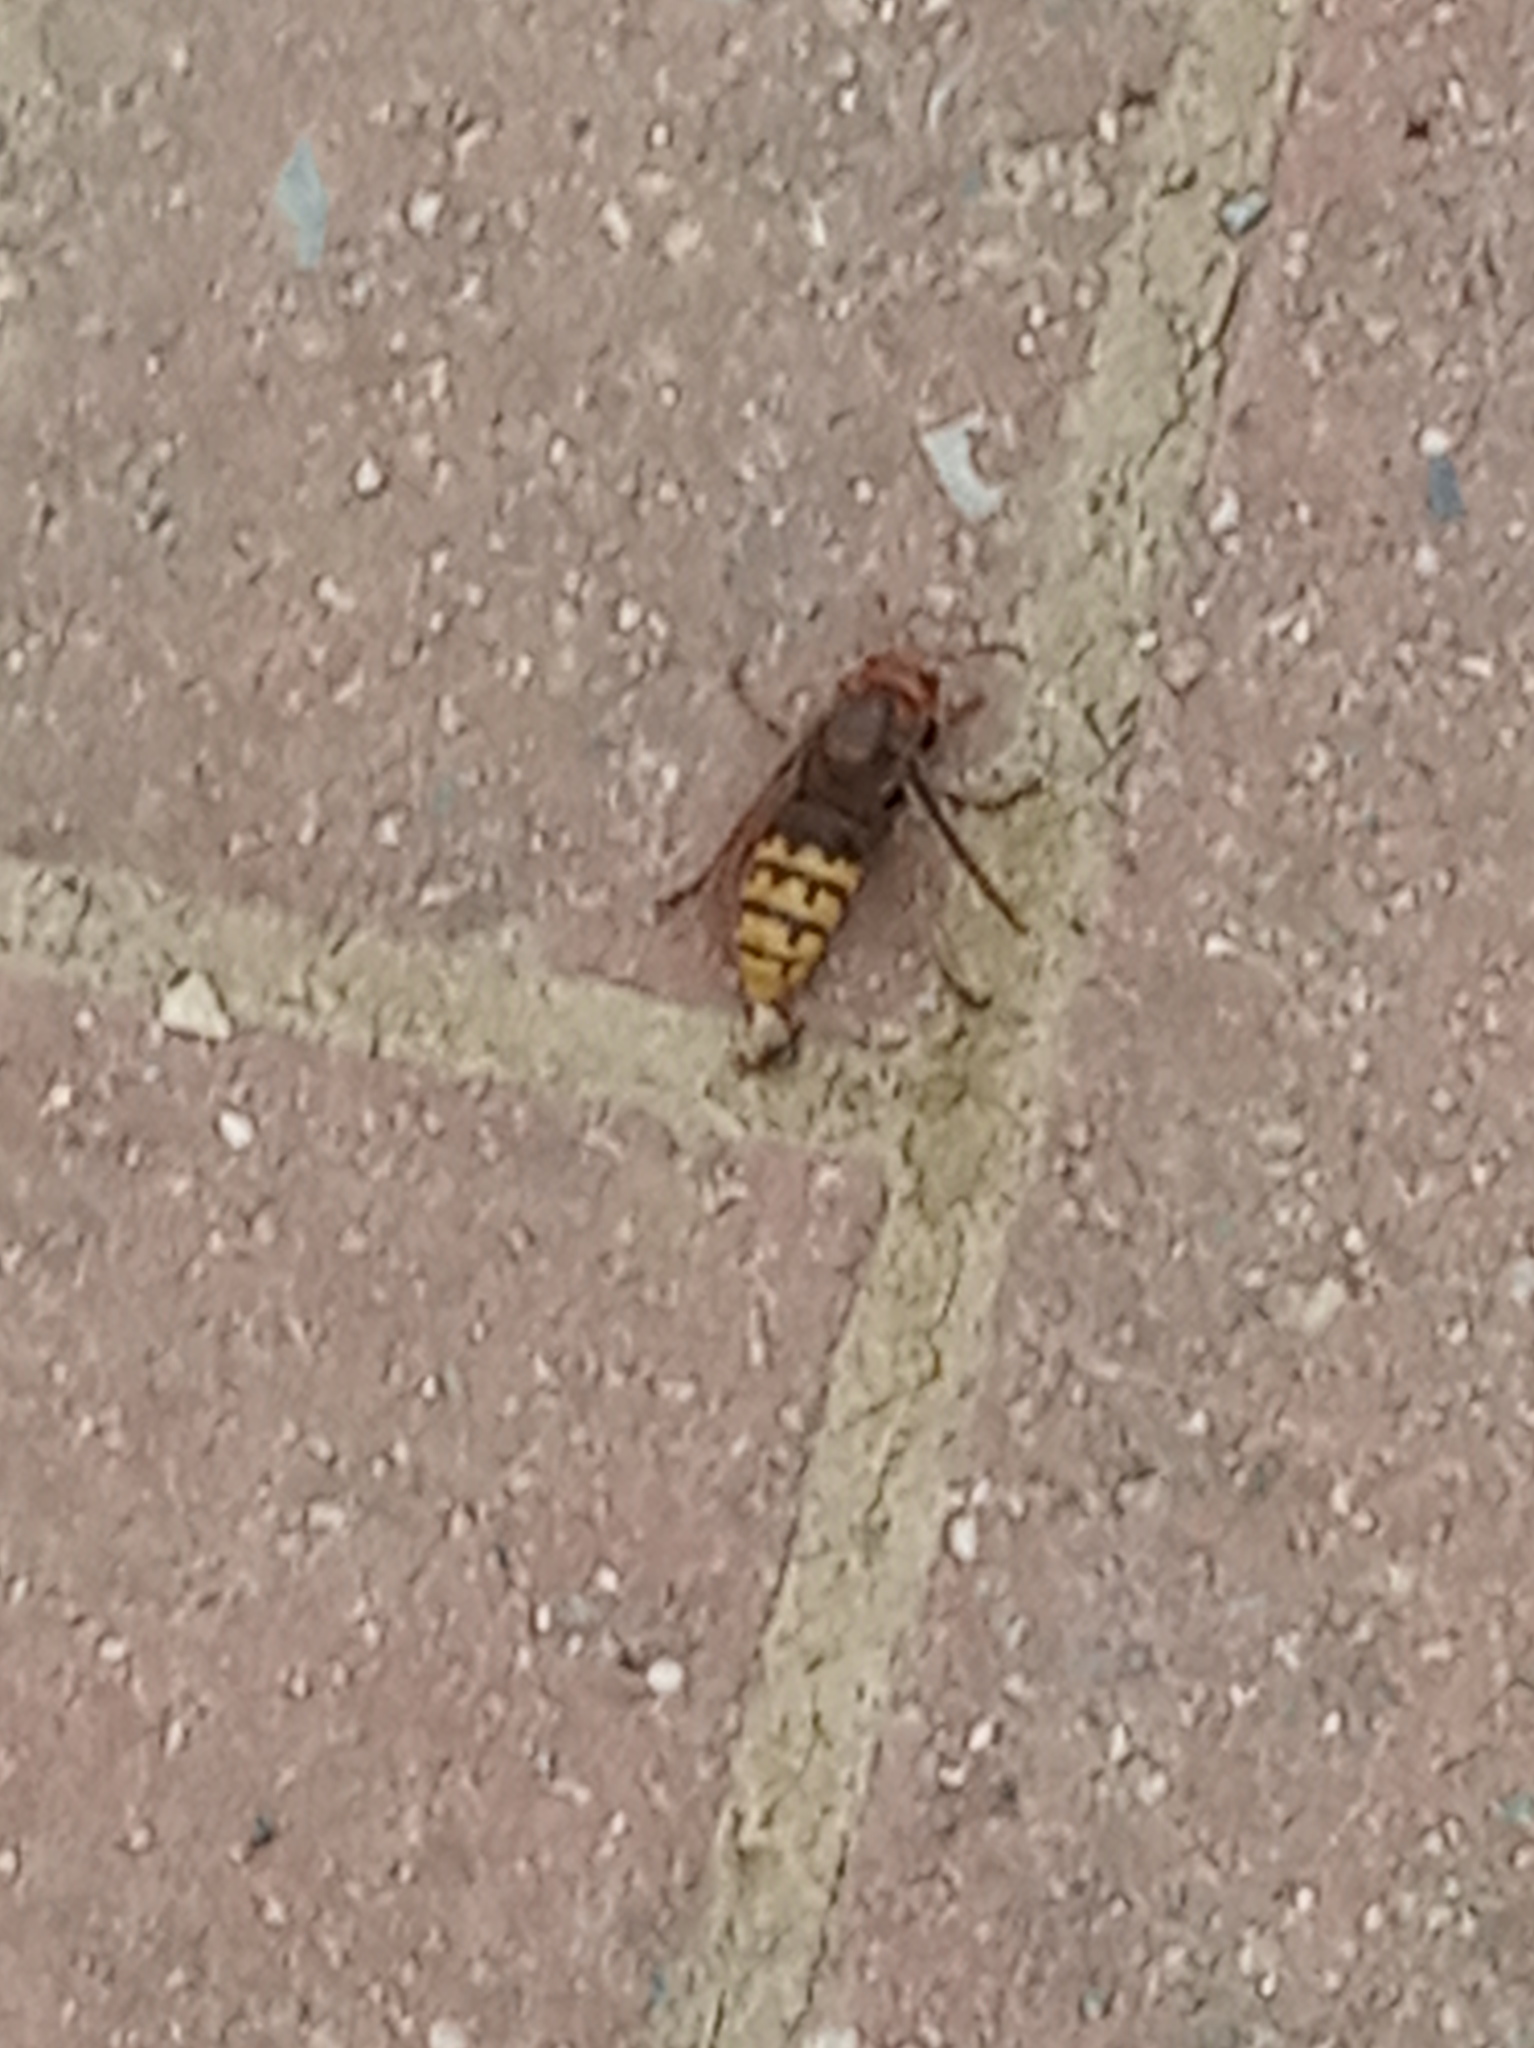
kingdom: Animalia
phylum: Arthropoda
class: Insecta
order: Hymenoptera
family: Vespidae
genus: Vespa
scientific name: Vespa crabro
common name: Hornet
